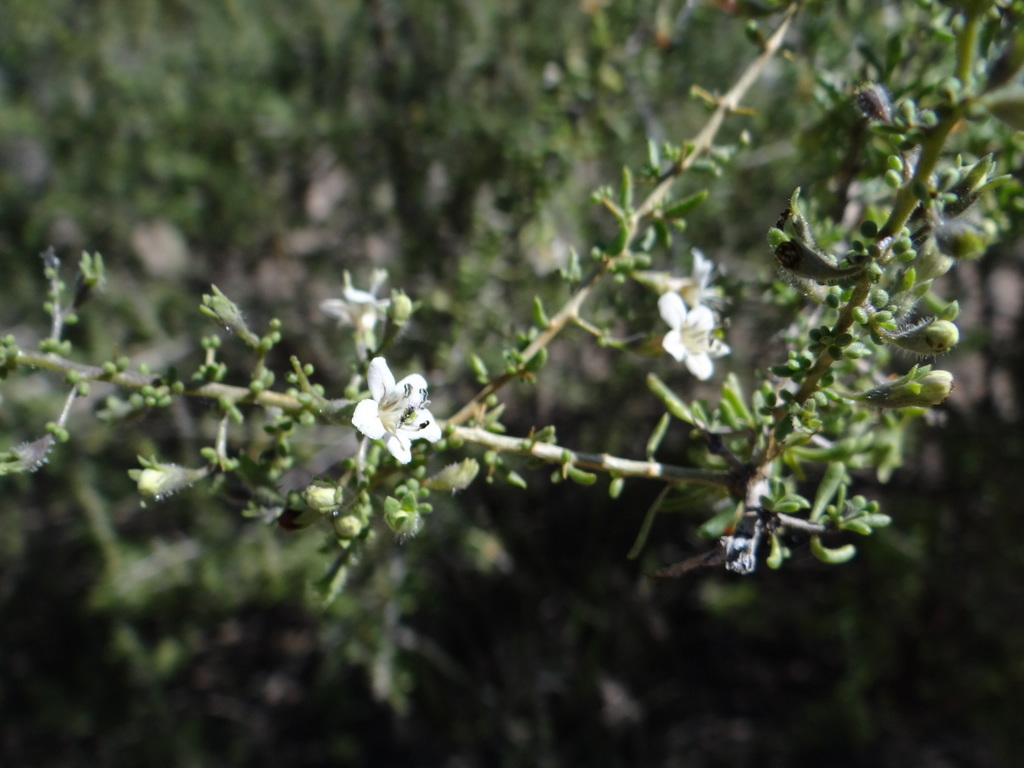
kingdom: Plantae
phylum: Tracheophyta
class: Magnoliopsida
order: Solanales
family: Solanaceae
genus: Lycium
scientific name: Lycium chilense
